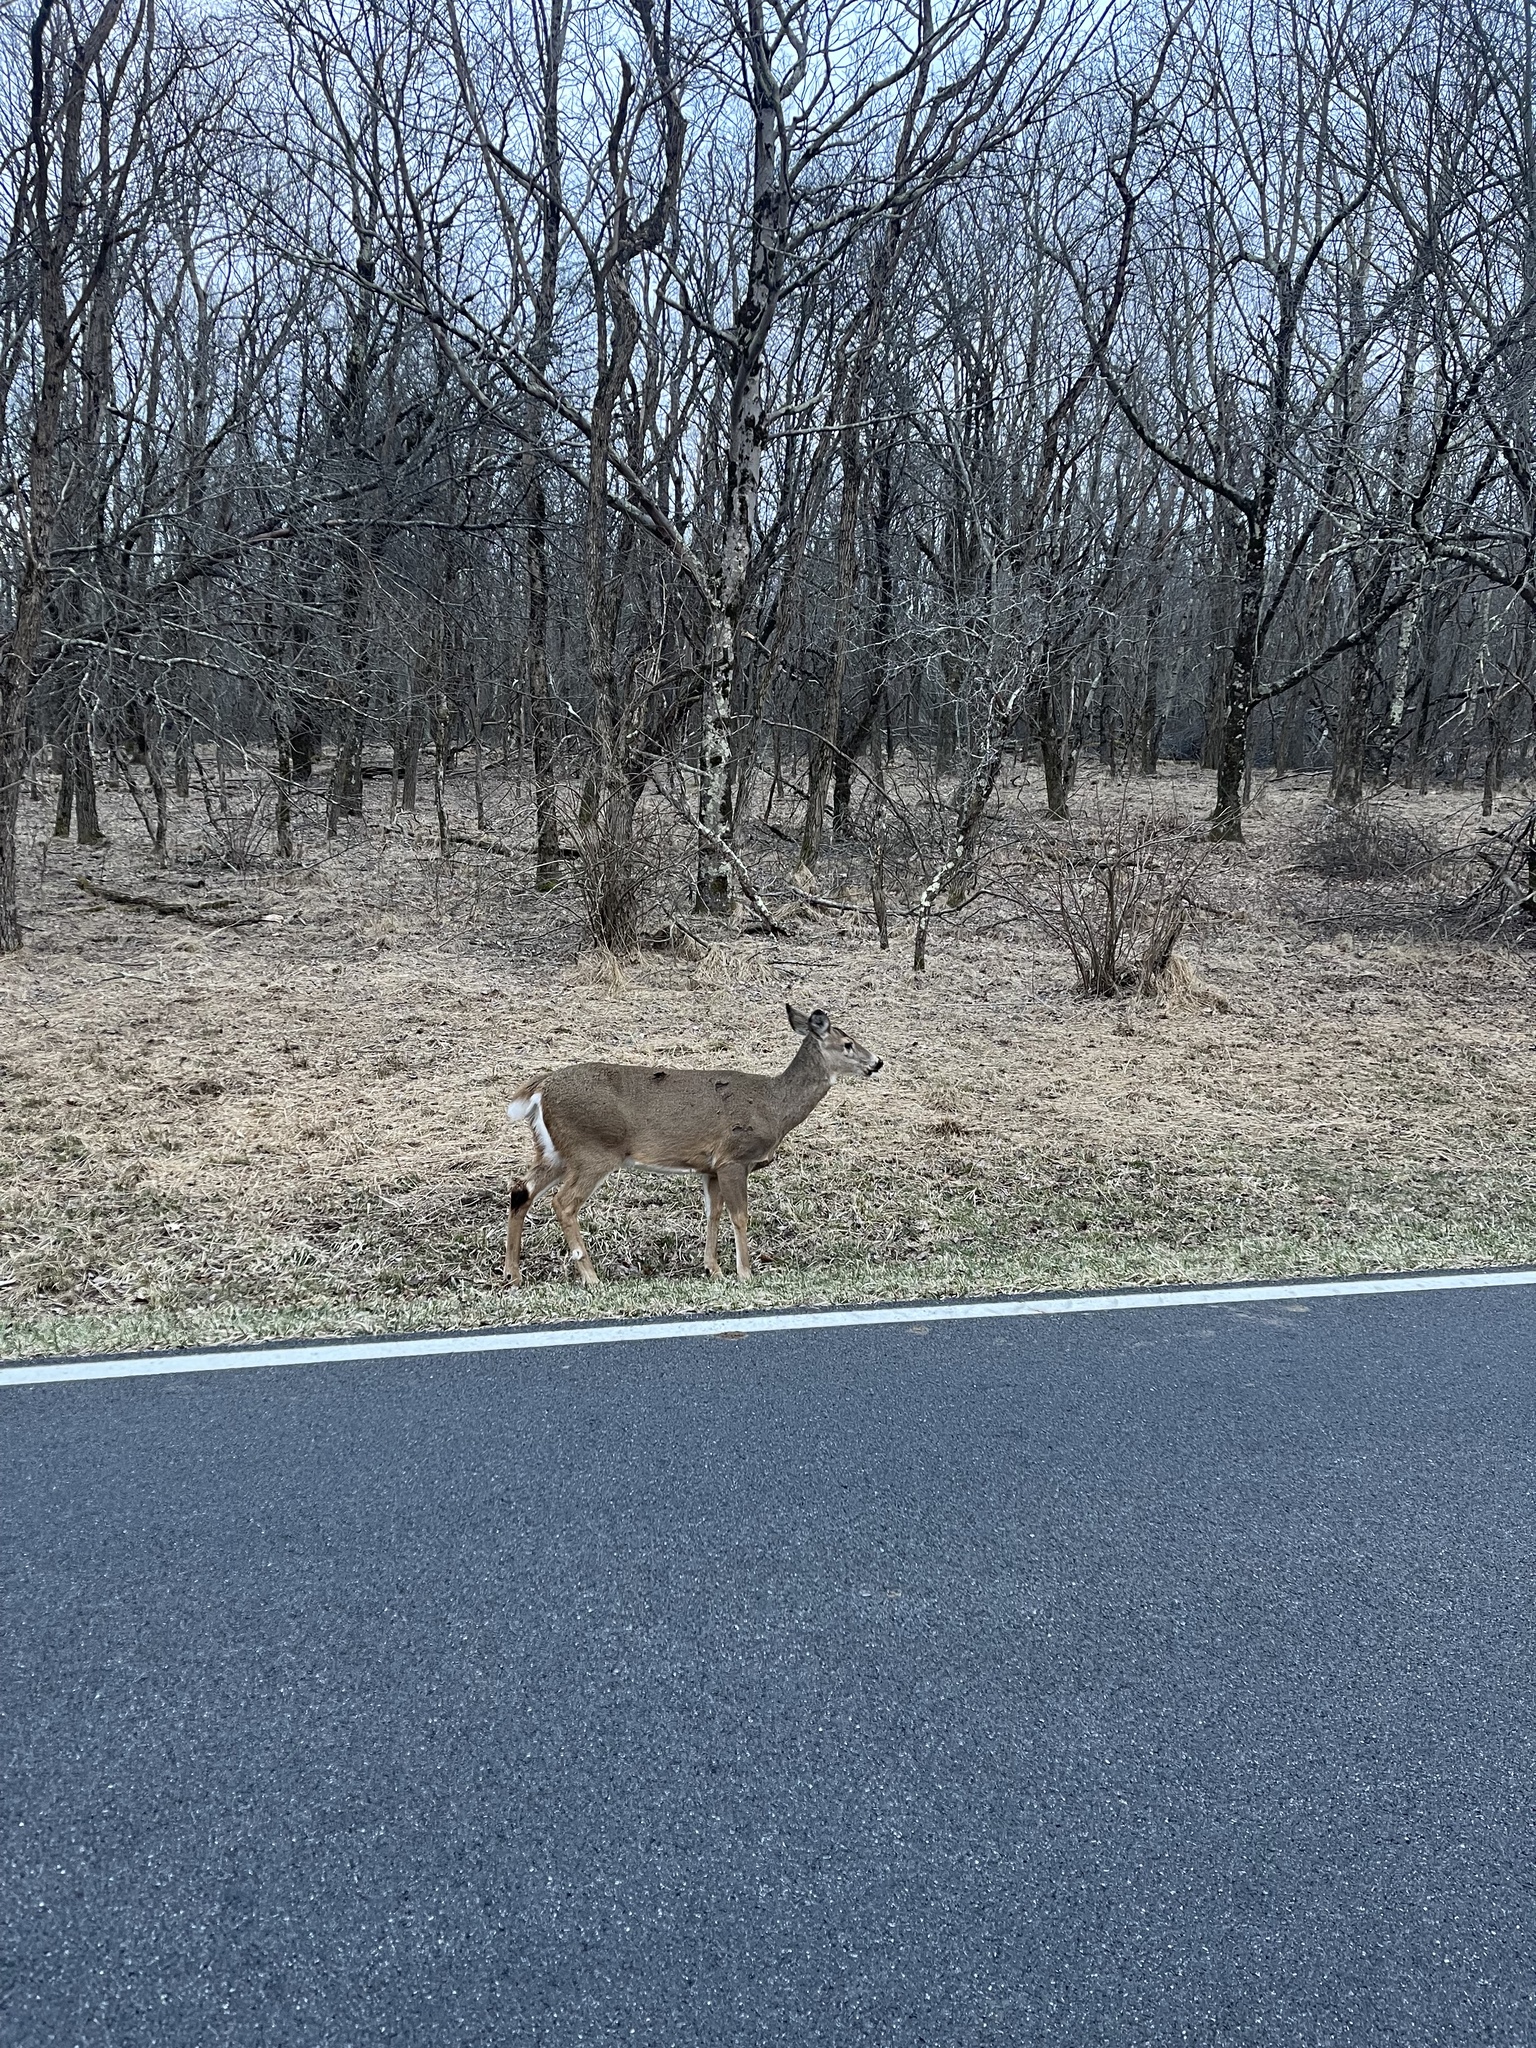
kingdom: Animalia
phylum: Chordata
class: Mammalia
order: Artiodactyla
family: Cervidae
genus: Odocoileus
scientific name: Odocoileus virginianus
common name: White-tailed deer
